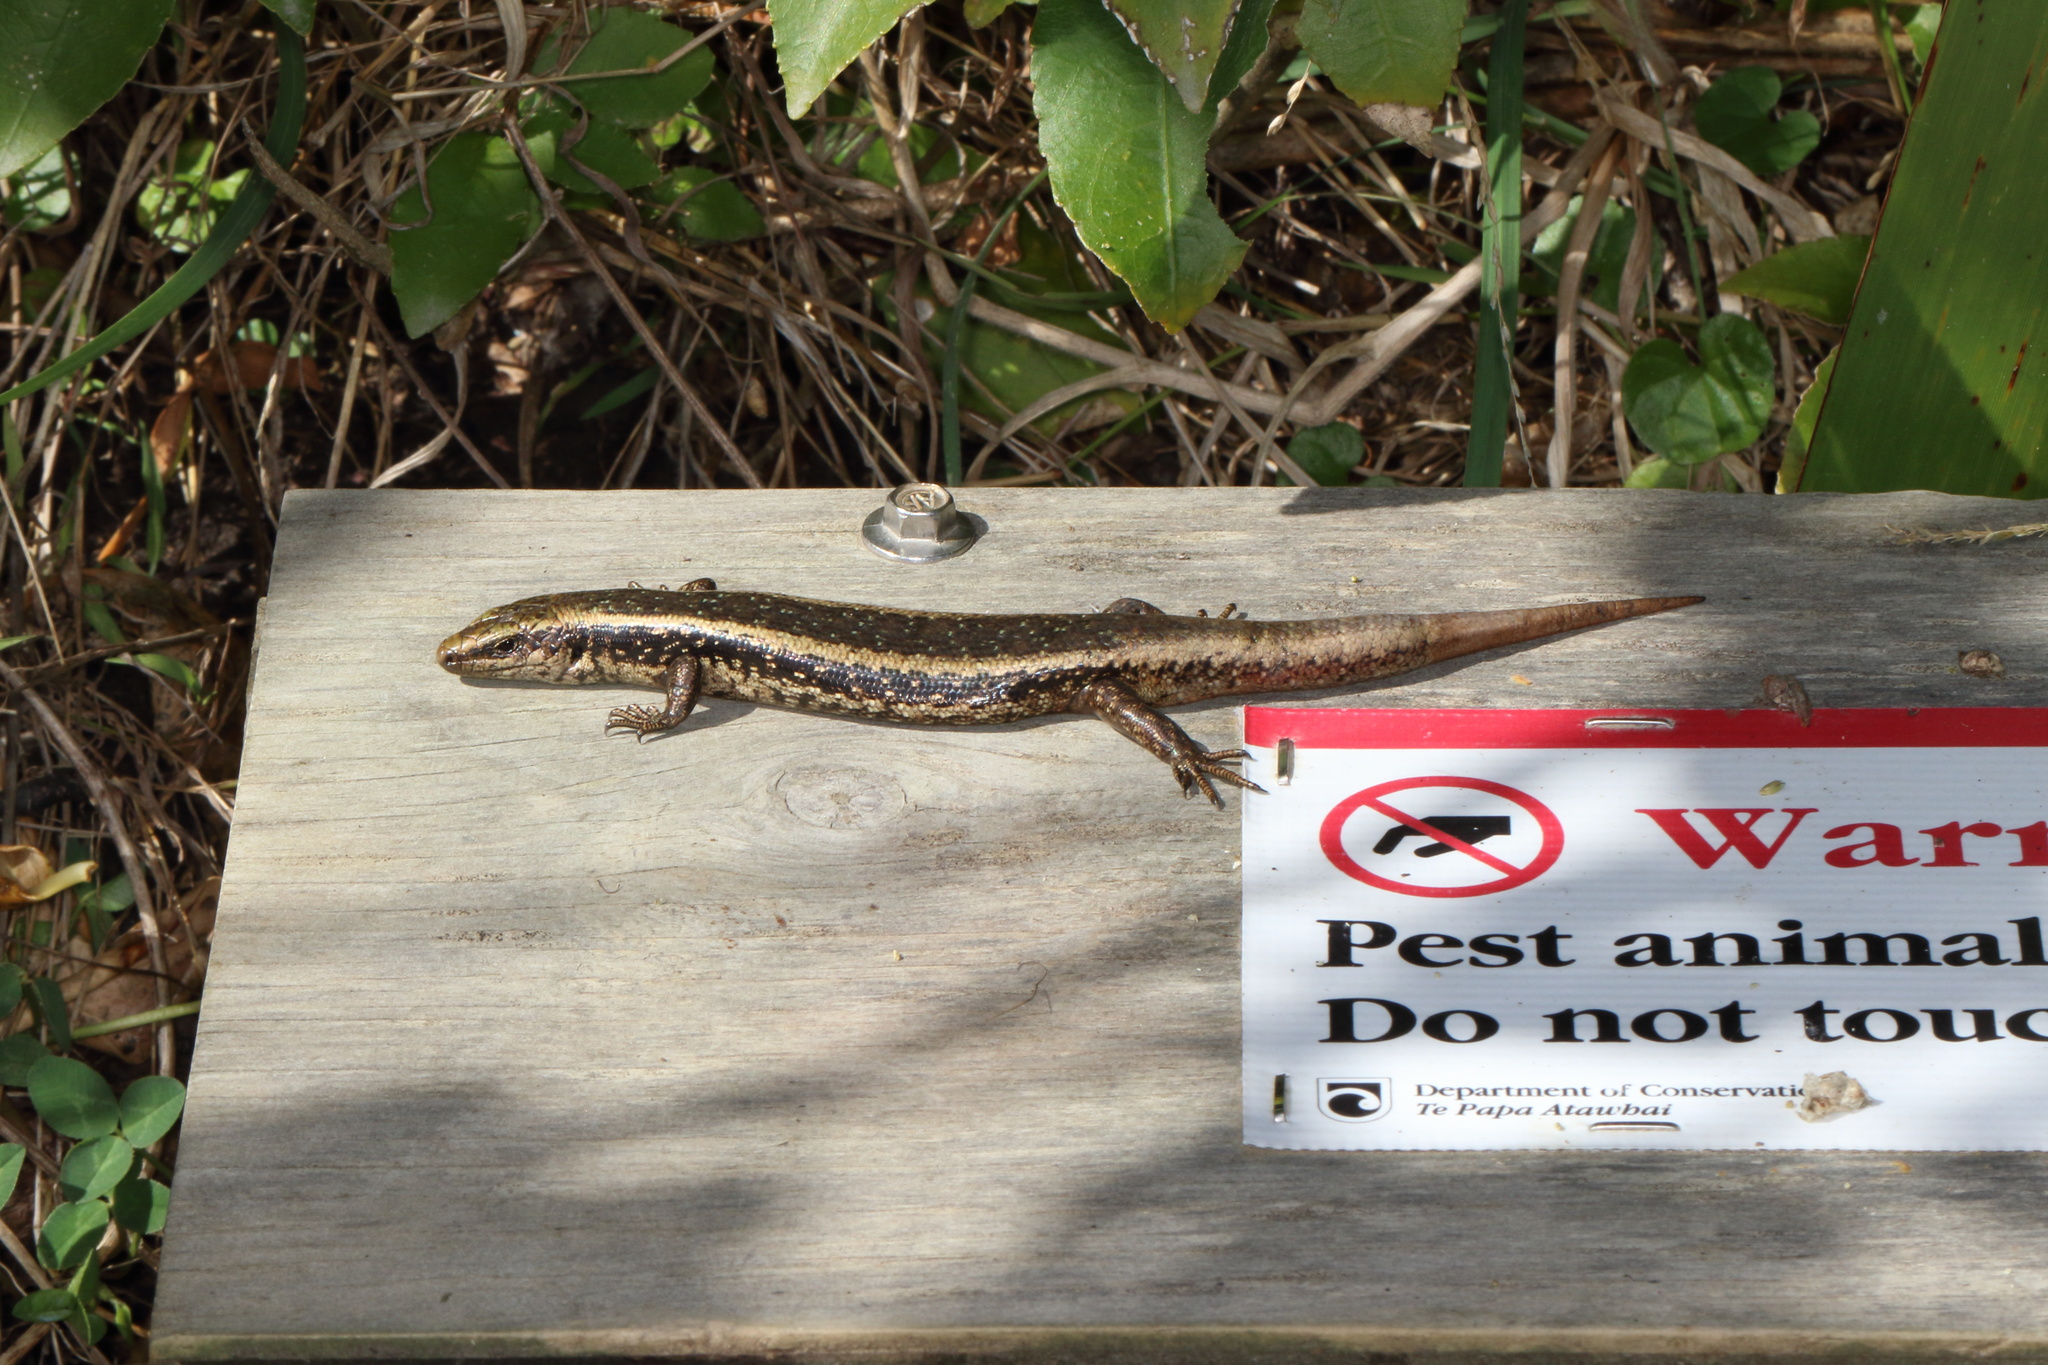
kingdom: Animalia
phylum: Chordata
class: Squamata
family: Scincidae
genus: Oligosoma
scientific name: Oligosoma kokowai
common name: Northern spotted skink
